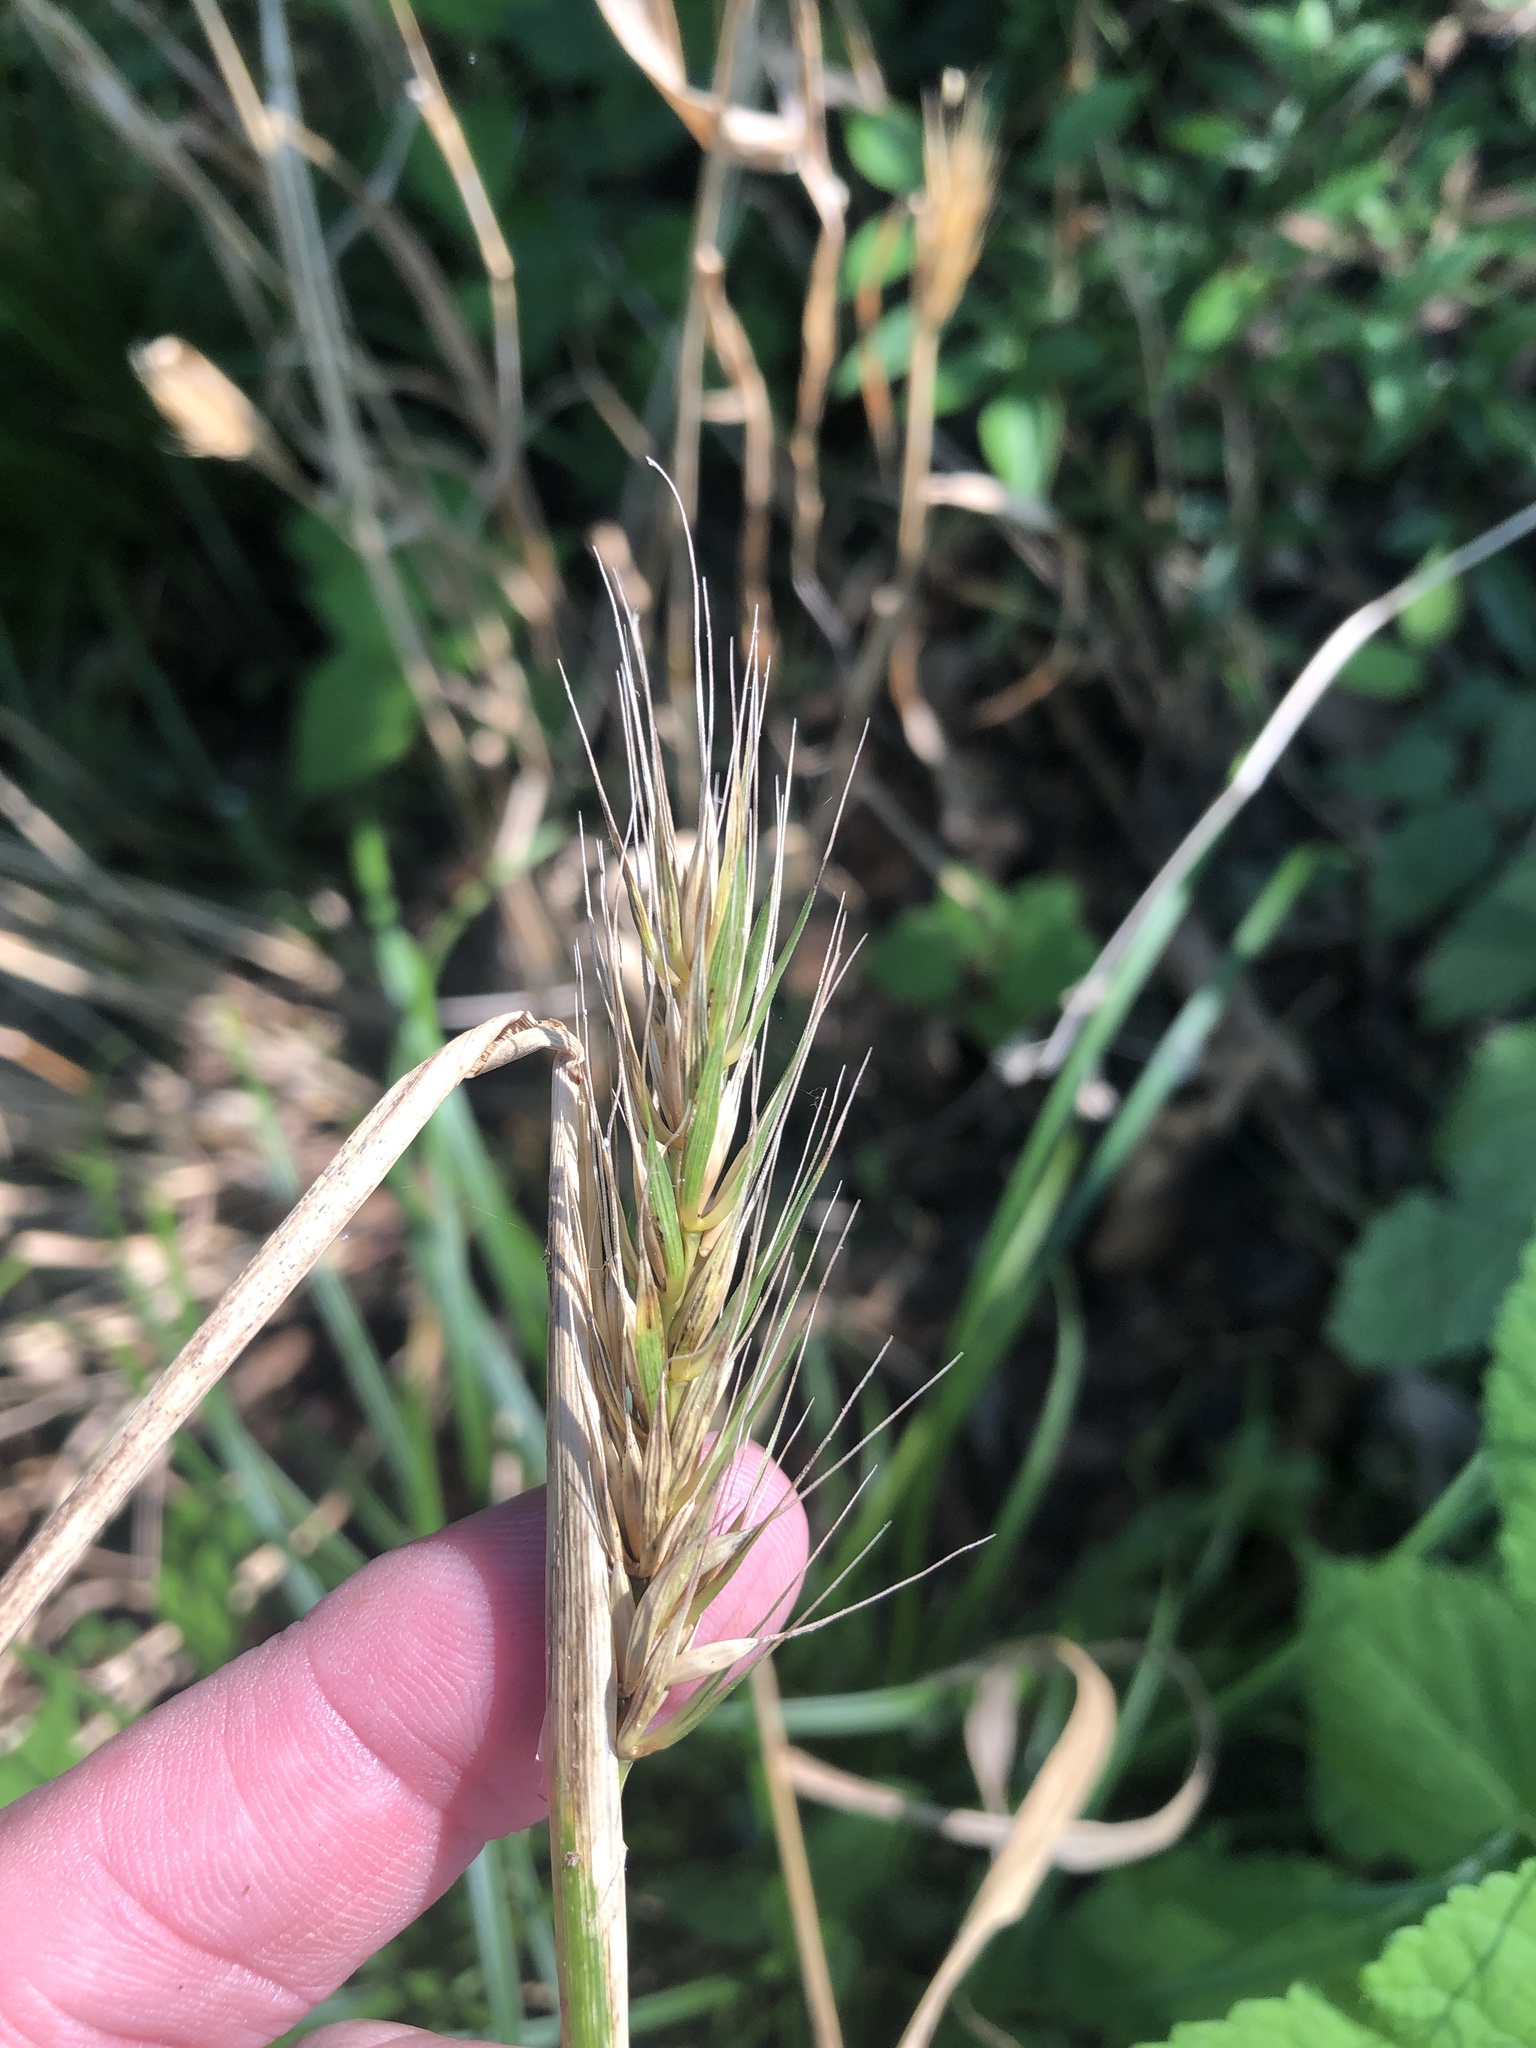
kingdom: Plantae
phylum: Tracheophyta
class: Liliopsida
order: Poales
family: Poaceae
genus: Elymus
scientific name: Elymus virginicus
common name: Common eastern wildrye
